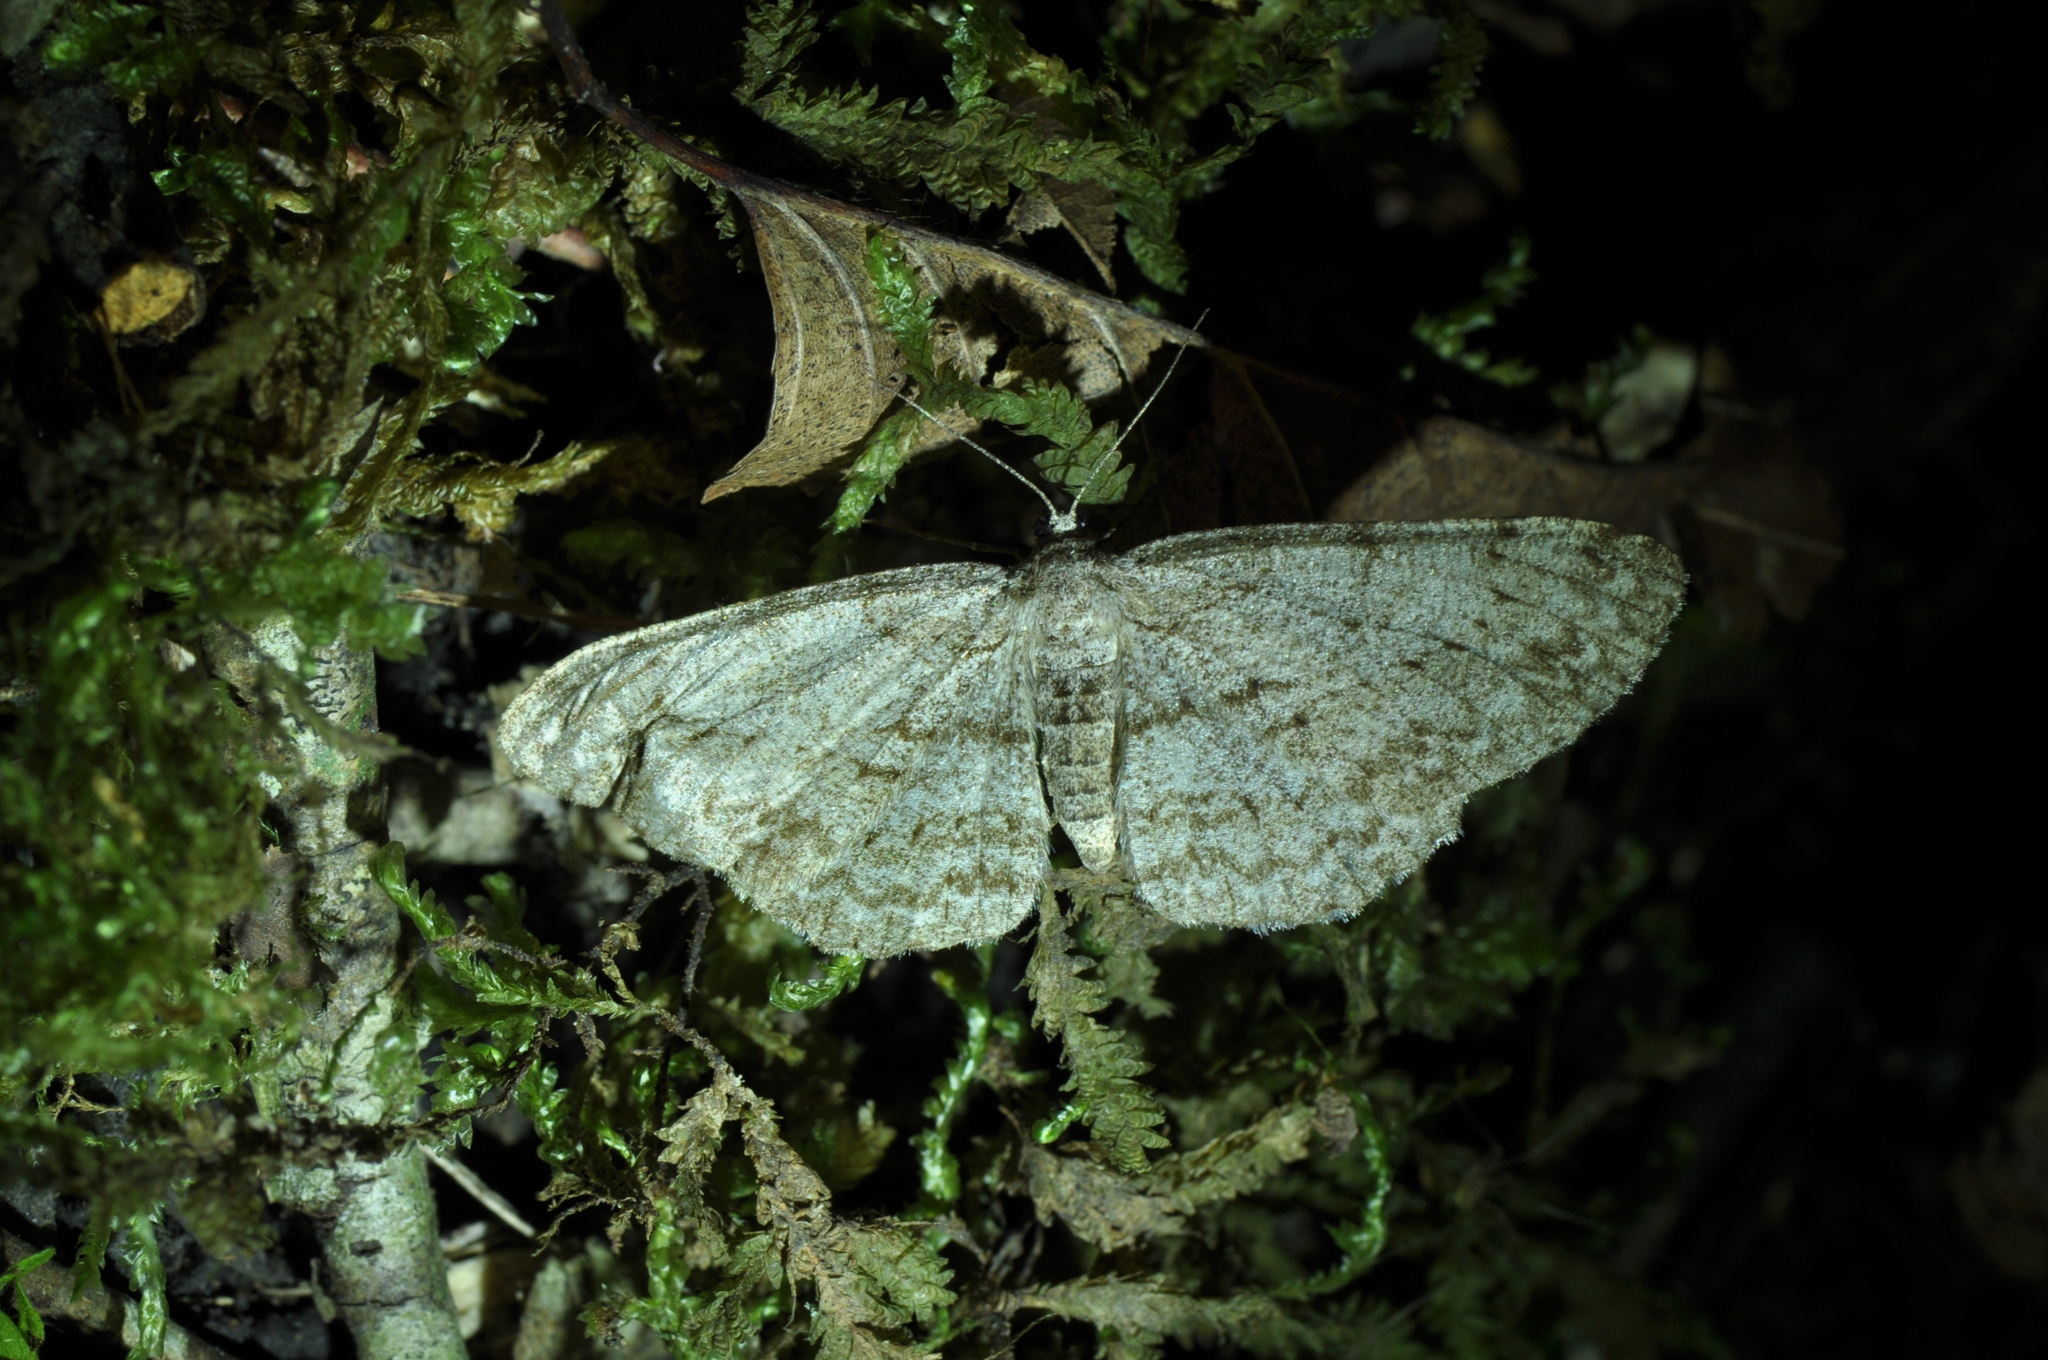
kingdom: Animalia
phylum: Arthropoda
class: Insecta
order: Lepidoptera
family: Geometridae
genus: Ectropis
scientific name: Ectropis crepuscularia
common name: Engrailed
